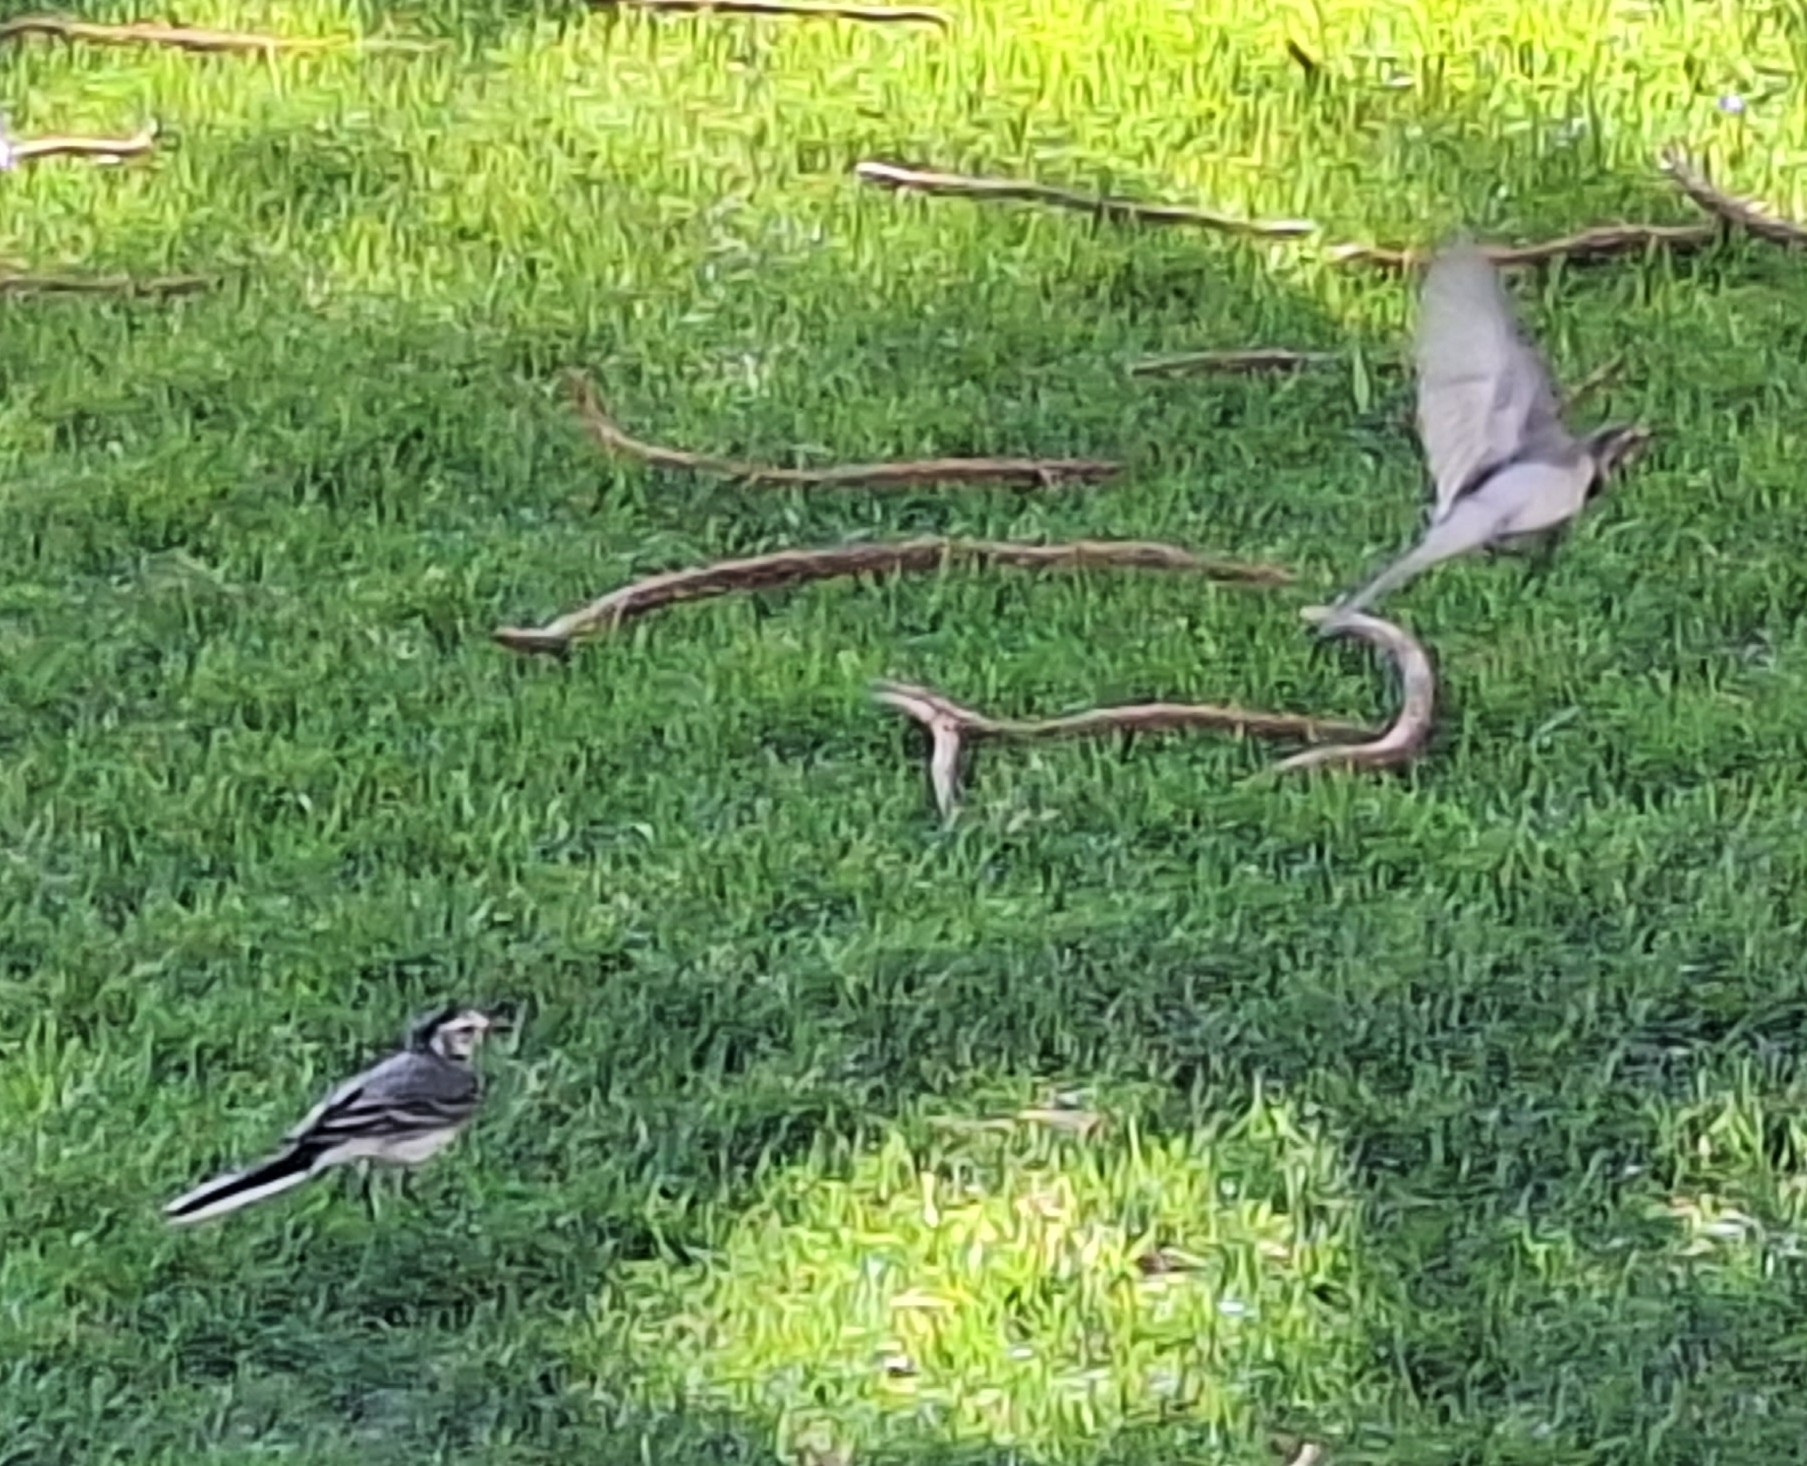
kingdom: Animalia
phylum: Chordata
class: Aves
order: Passeriformes
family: Motacillidae
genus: Motacilla
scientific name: Motacilla alba
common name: White wagtail
